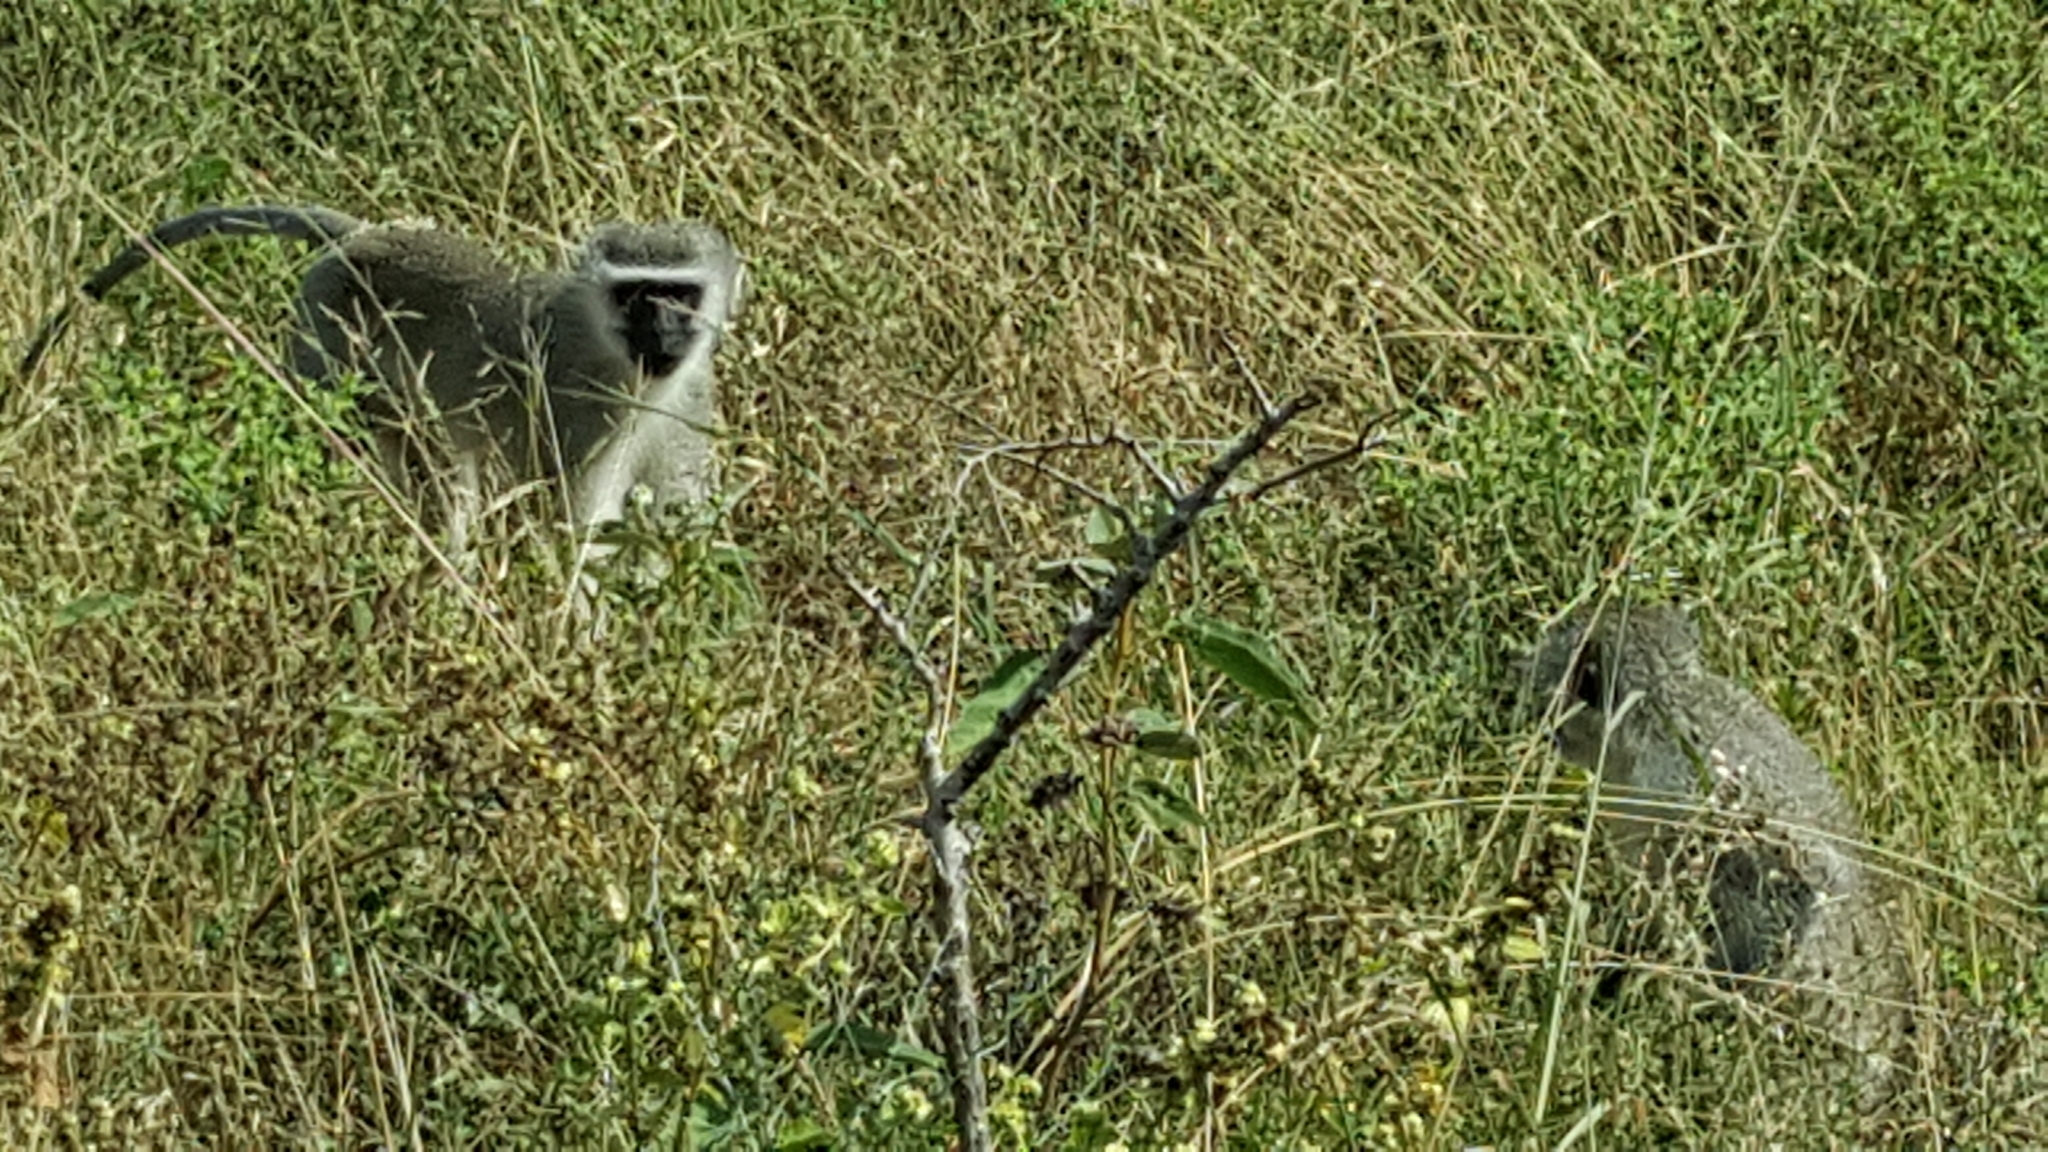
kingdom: Animalia
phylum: Chordata
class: Mammalia
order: Primates
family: Cercopithecidae
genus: Chlorocebus
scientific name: Chlorocebus pygerythrus
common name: Vervet monkey
